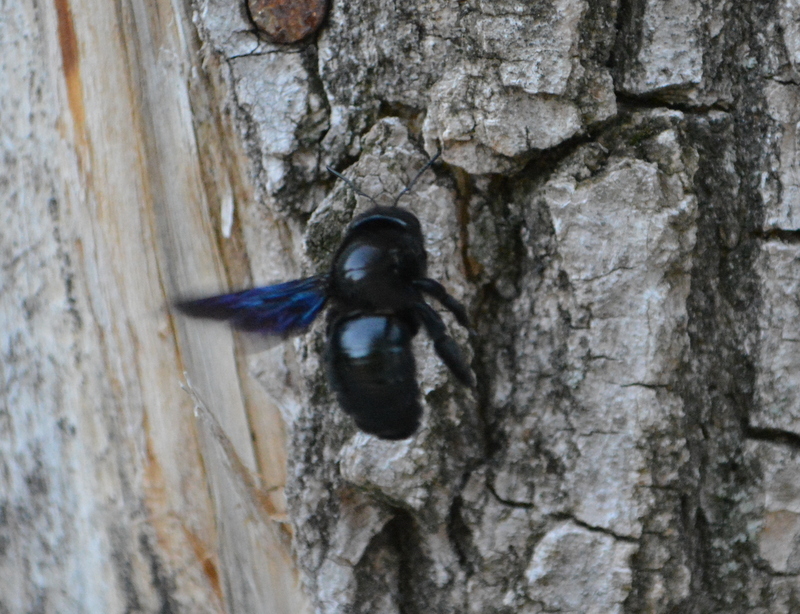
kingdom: Animalia
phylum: Arthropoda
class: Insecta
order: Hymenoptera
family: Apidae
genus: Xylocopa
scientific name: Xylocopa
